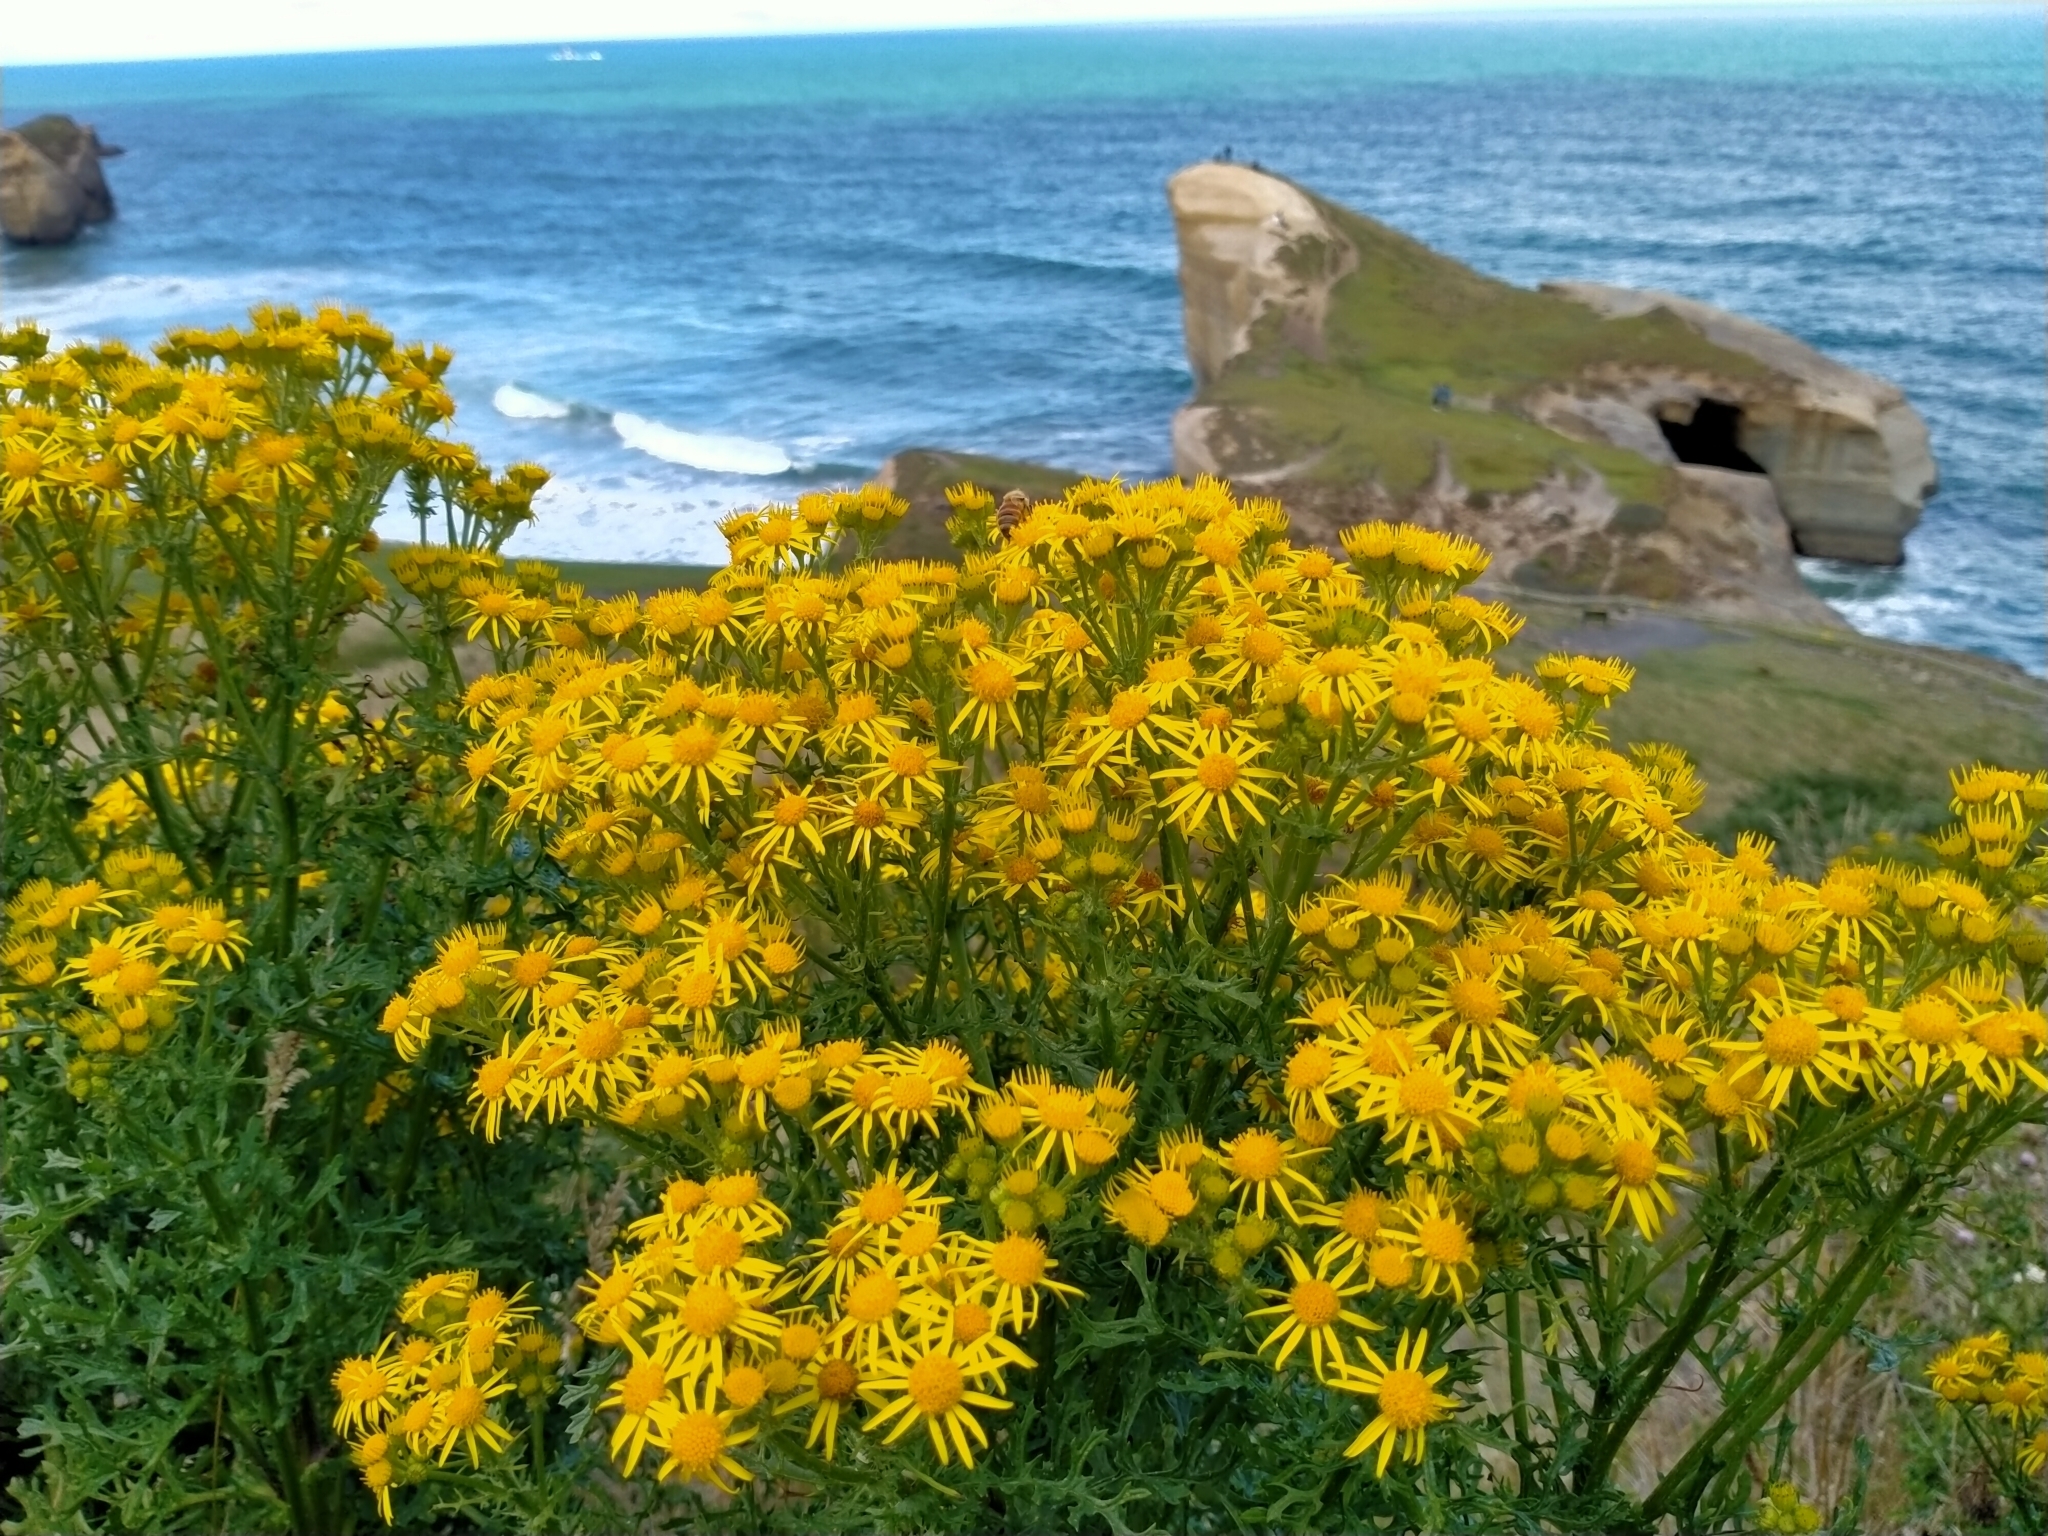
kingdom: Plantae
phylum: Tracheophyta
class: Magnoliopsida
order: Asterales
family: Asteraceae
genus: Jacobaea
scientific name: Jacobaea vulgaris
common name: Stinking willie
